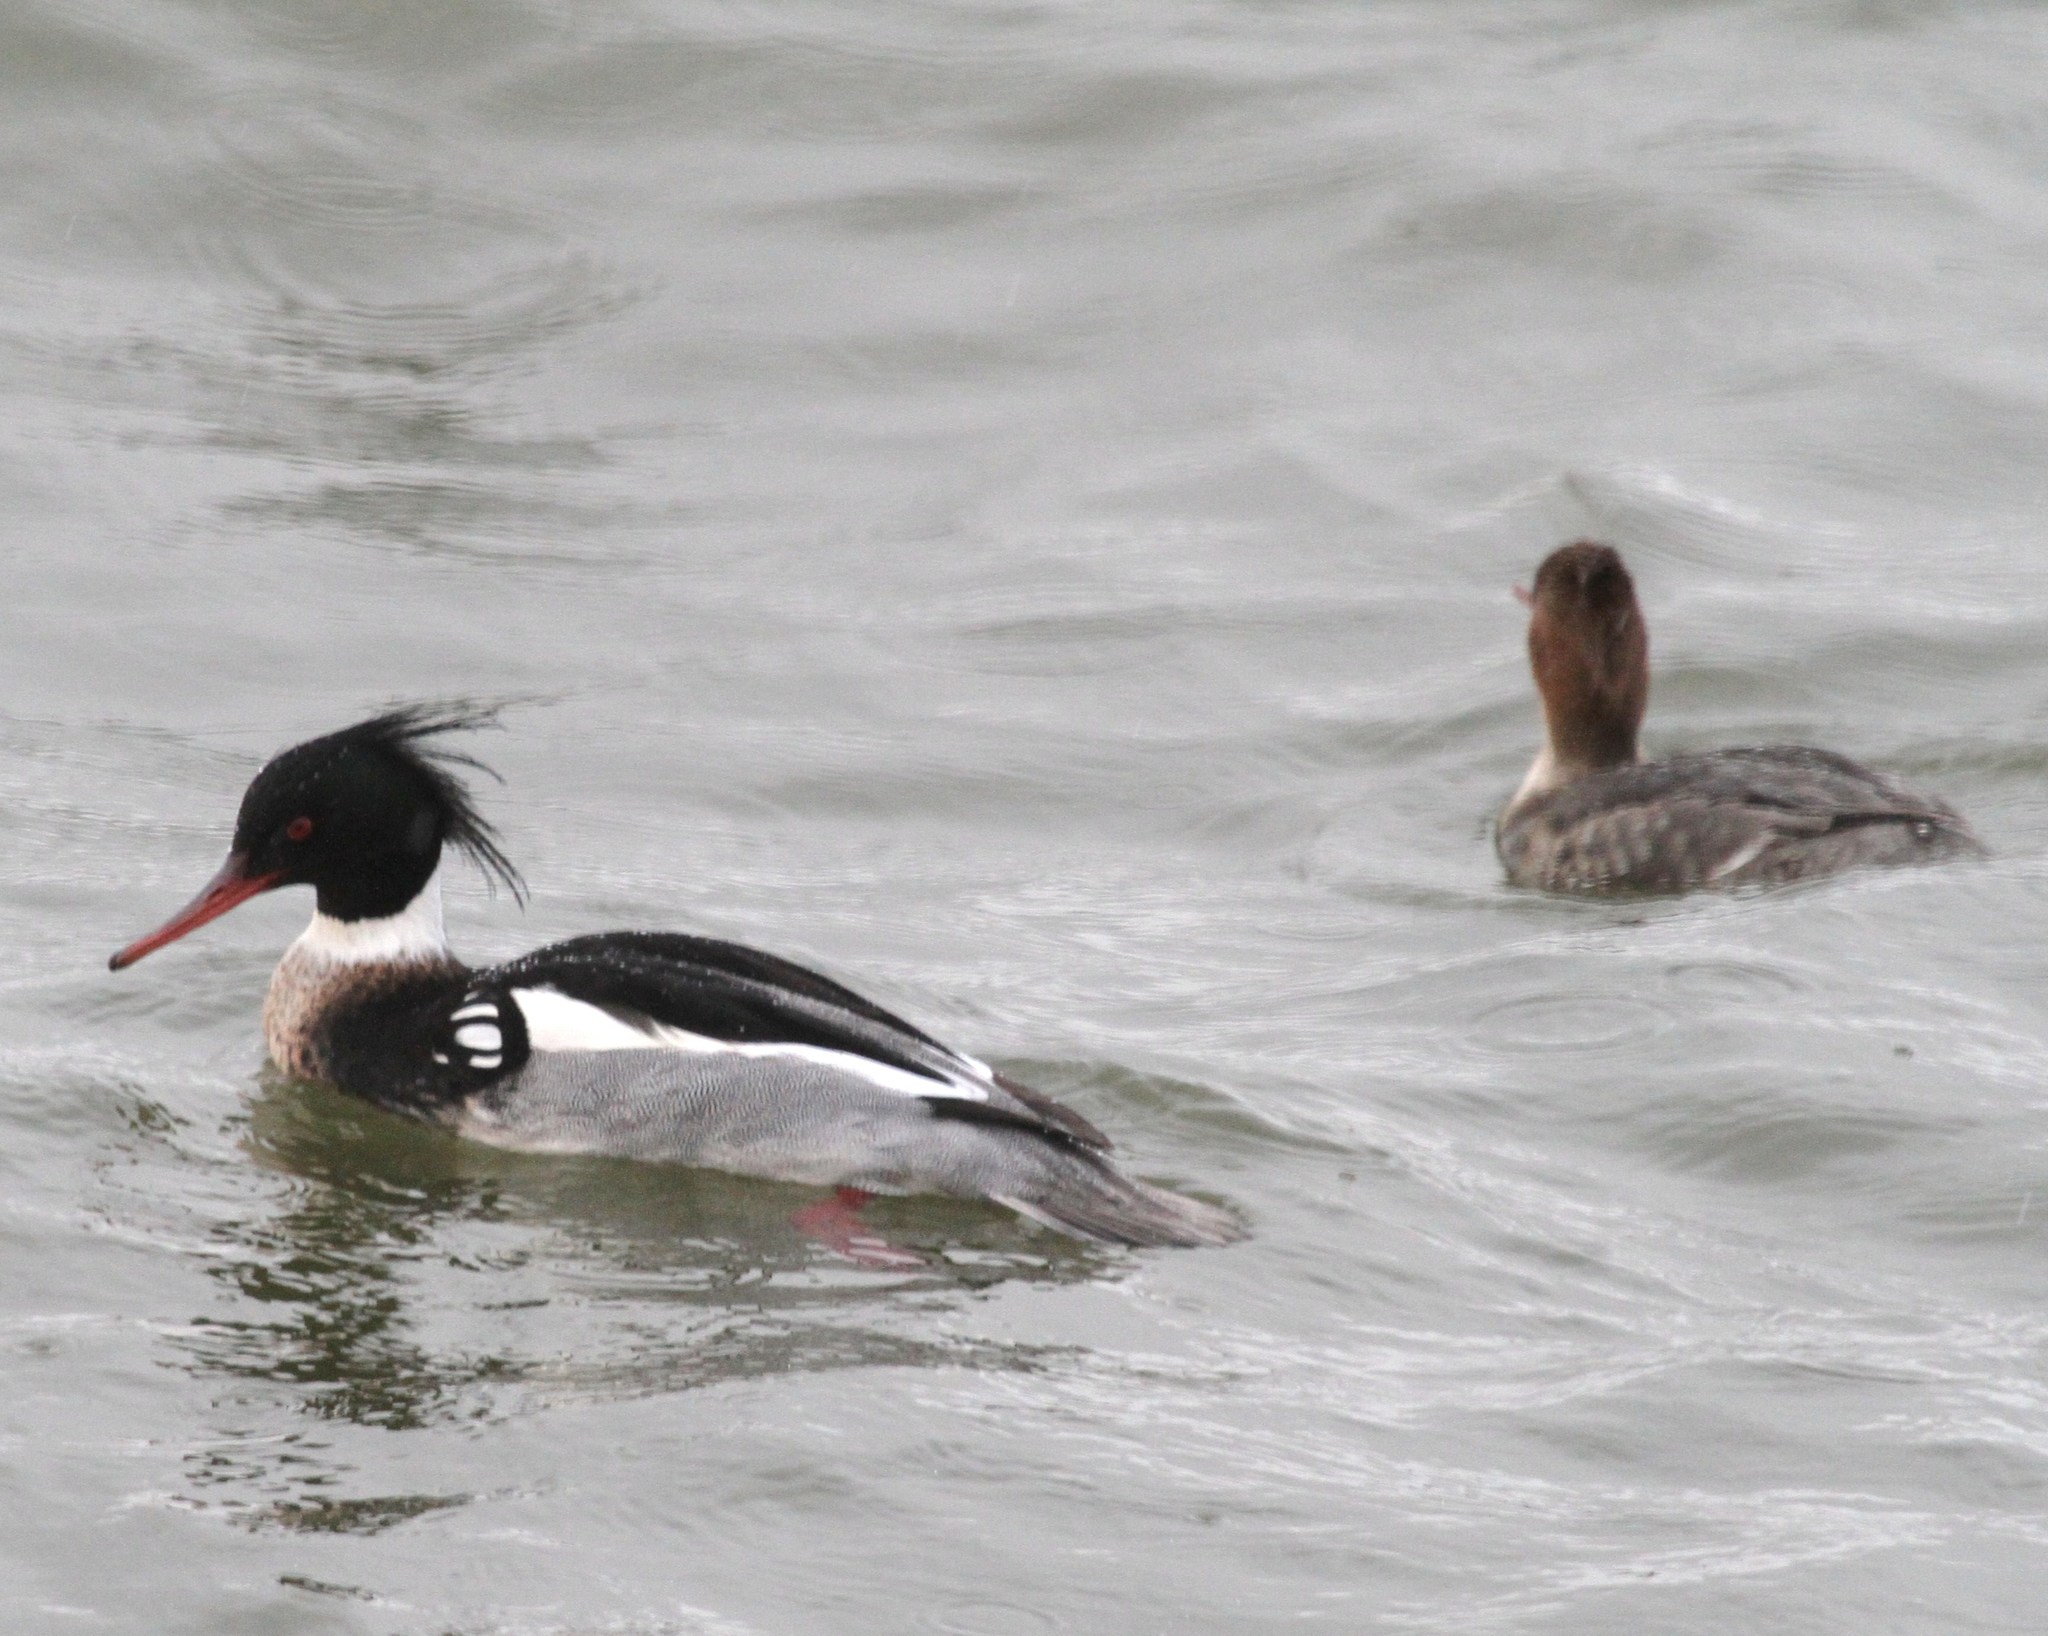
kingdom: Animalia
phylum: Chordata
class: Aves
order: Anseriformes
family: Anatidae
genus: Mergus
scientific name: Mergus serrator
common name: Red-breasted merganser
